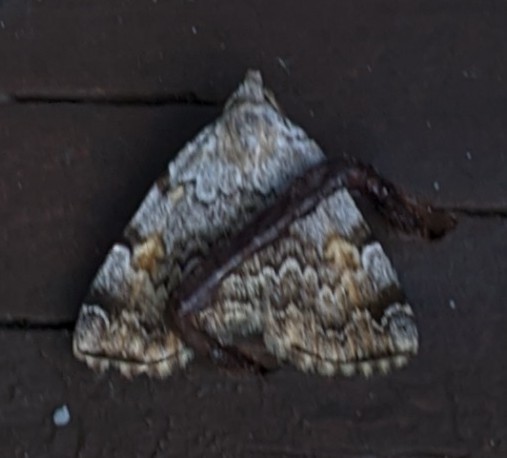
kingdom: Animalia
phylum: Arthropoda
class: Insecta
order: Lepidoptera
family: Erebidae
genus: Idia
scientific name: Idia americalis
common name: American idia moth
